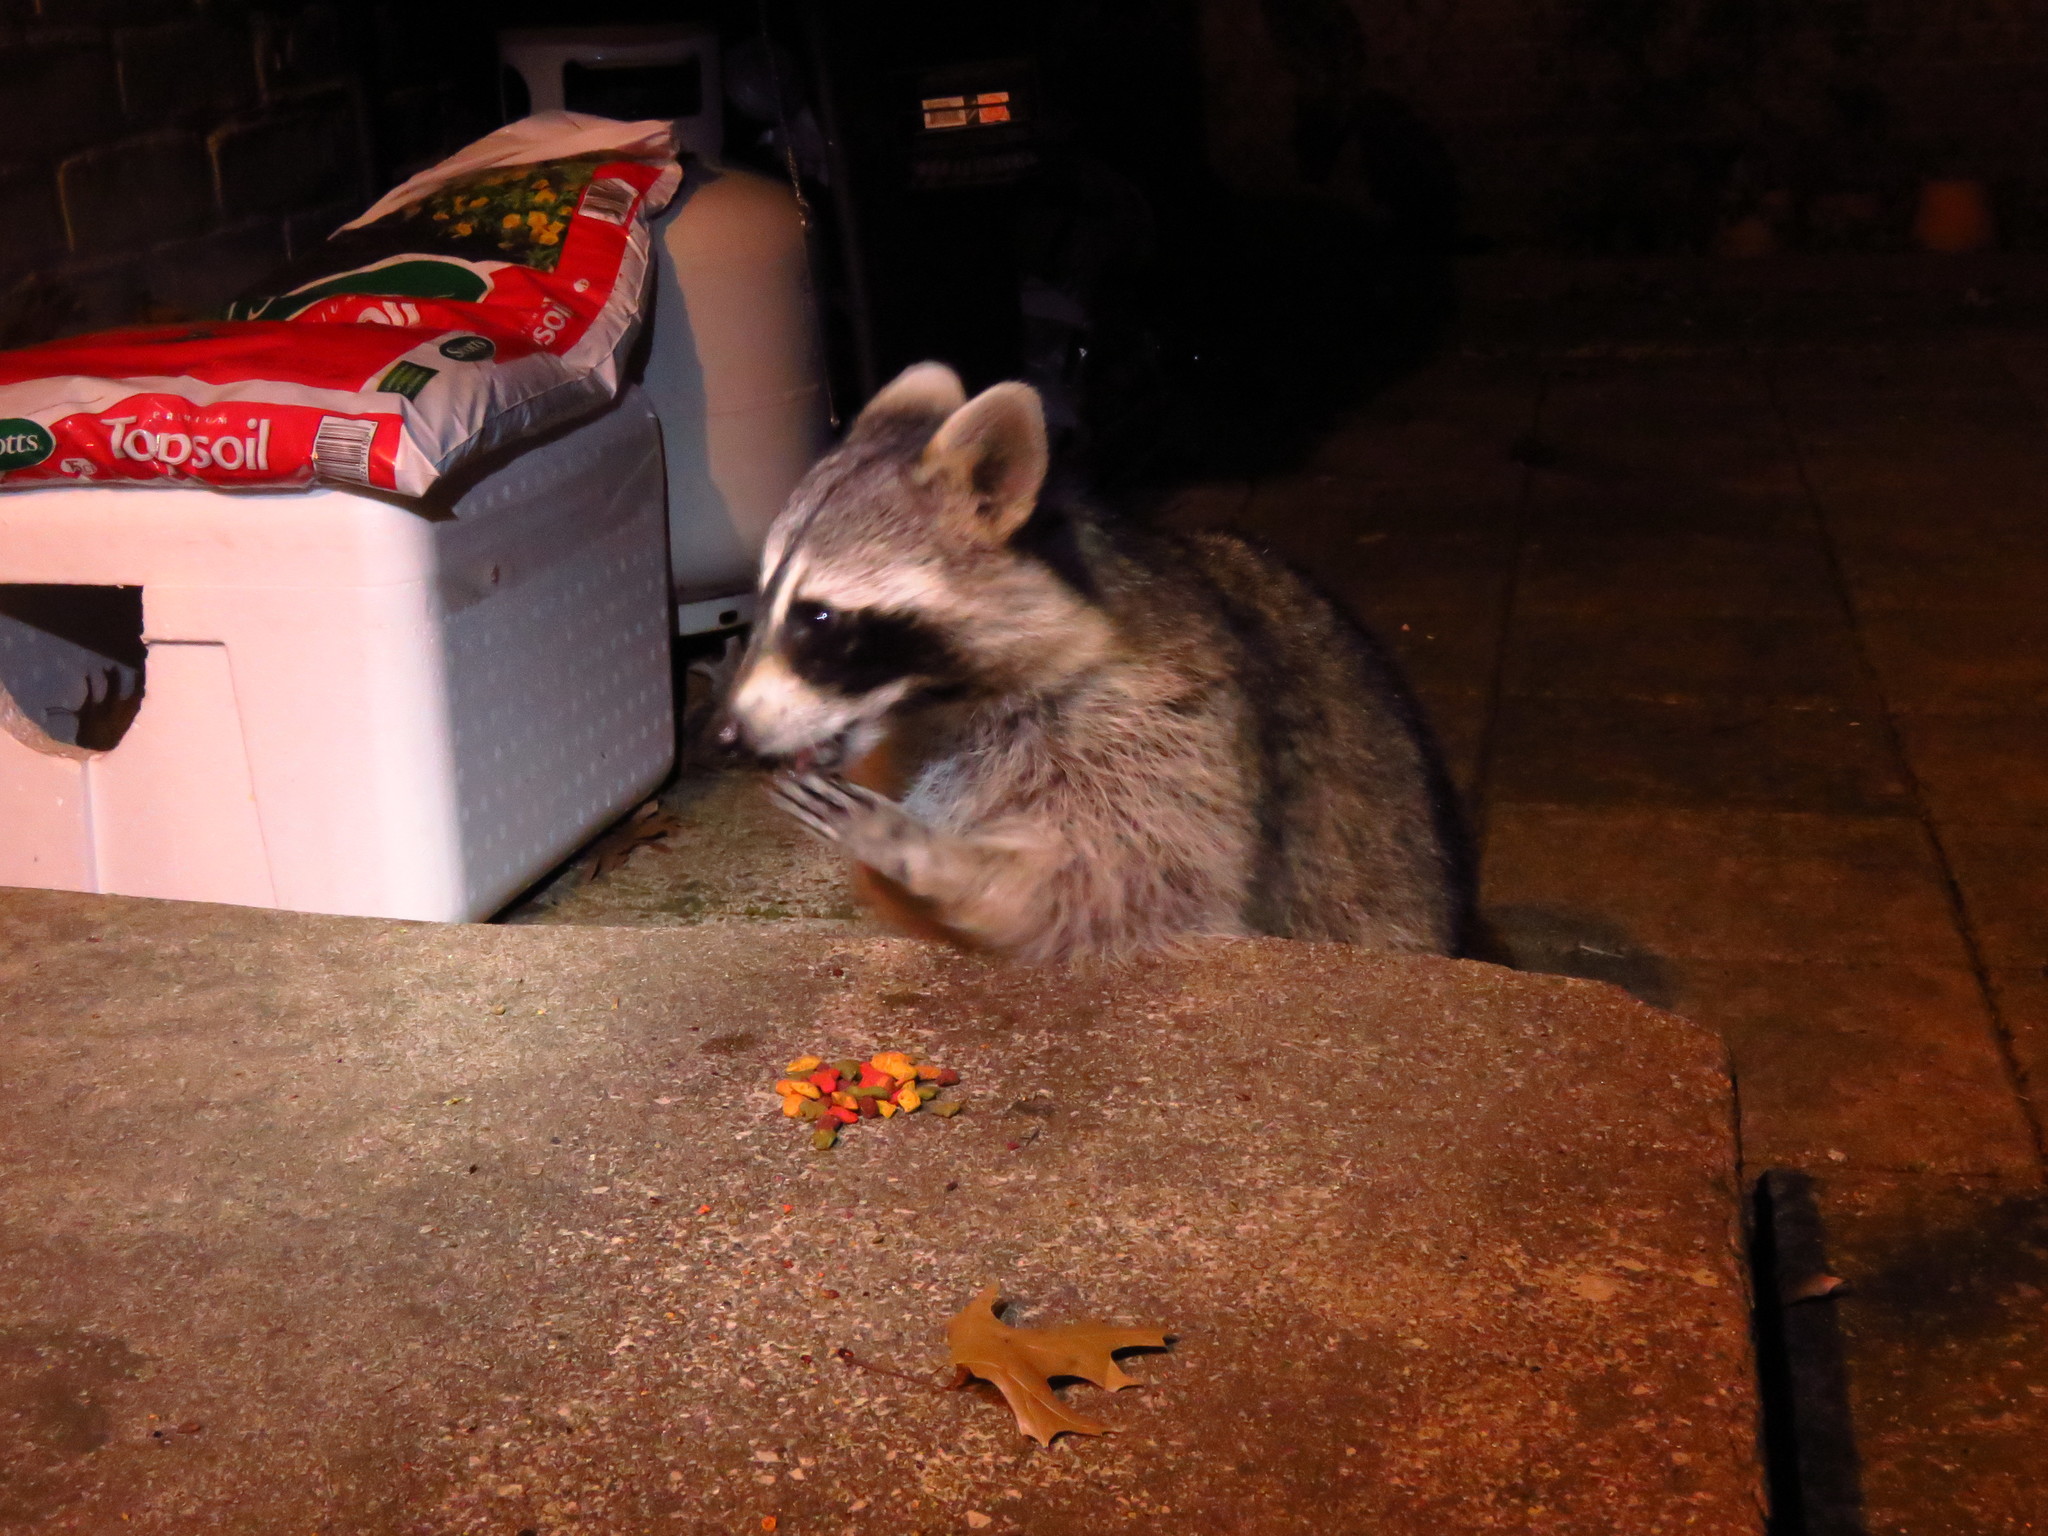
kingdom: Animalia
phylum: Chordata
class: Mammalia
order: Carnivora
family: Procyonidae
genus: Procyon
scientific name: Procyon lotor
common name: Raccoon
